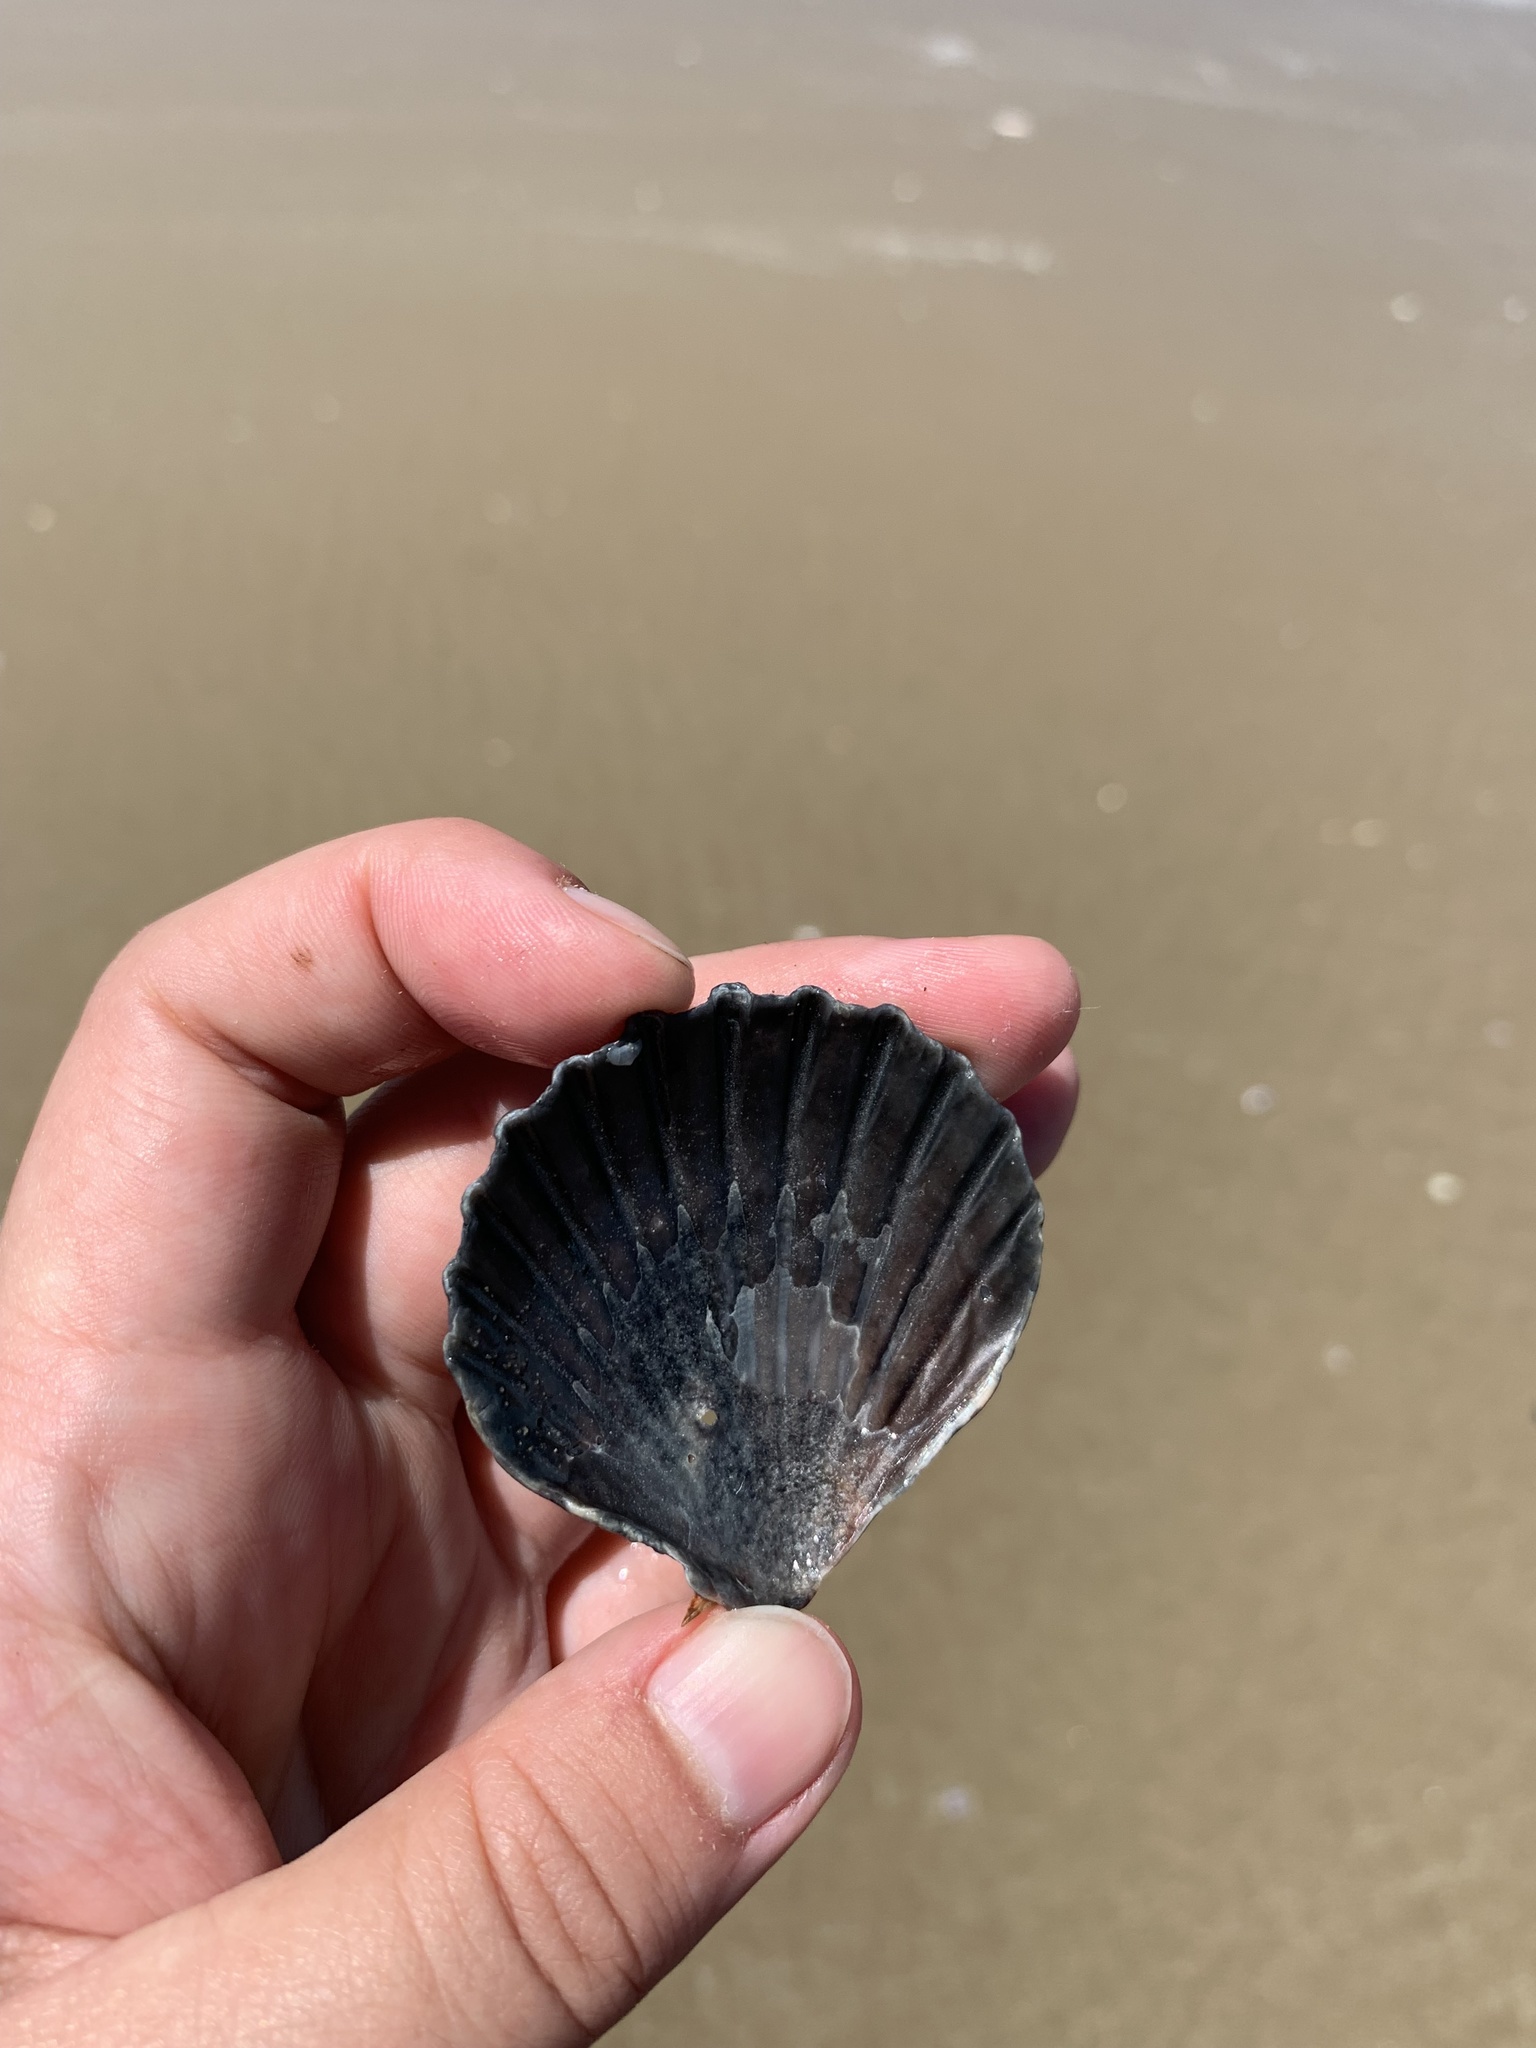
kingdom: Animalia
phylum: Mollusca
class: Bivalvia
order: Pectinida
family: Pectinidae
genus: Aequipecten
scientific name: Aequipecten tehuelchus
